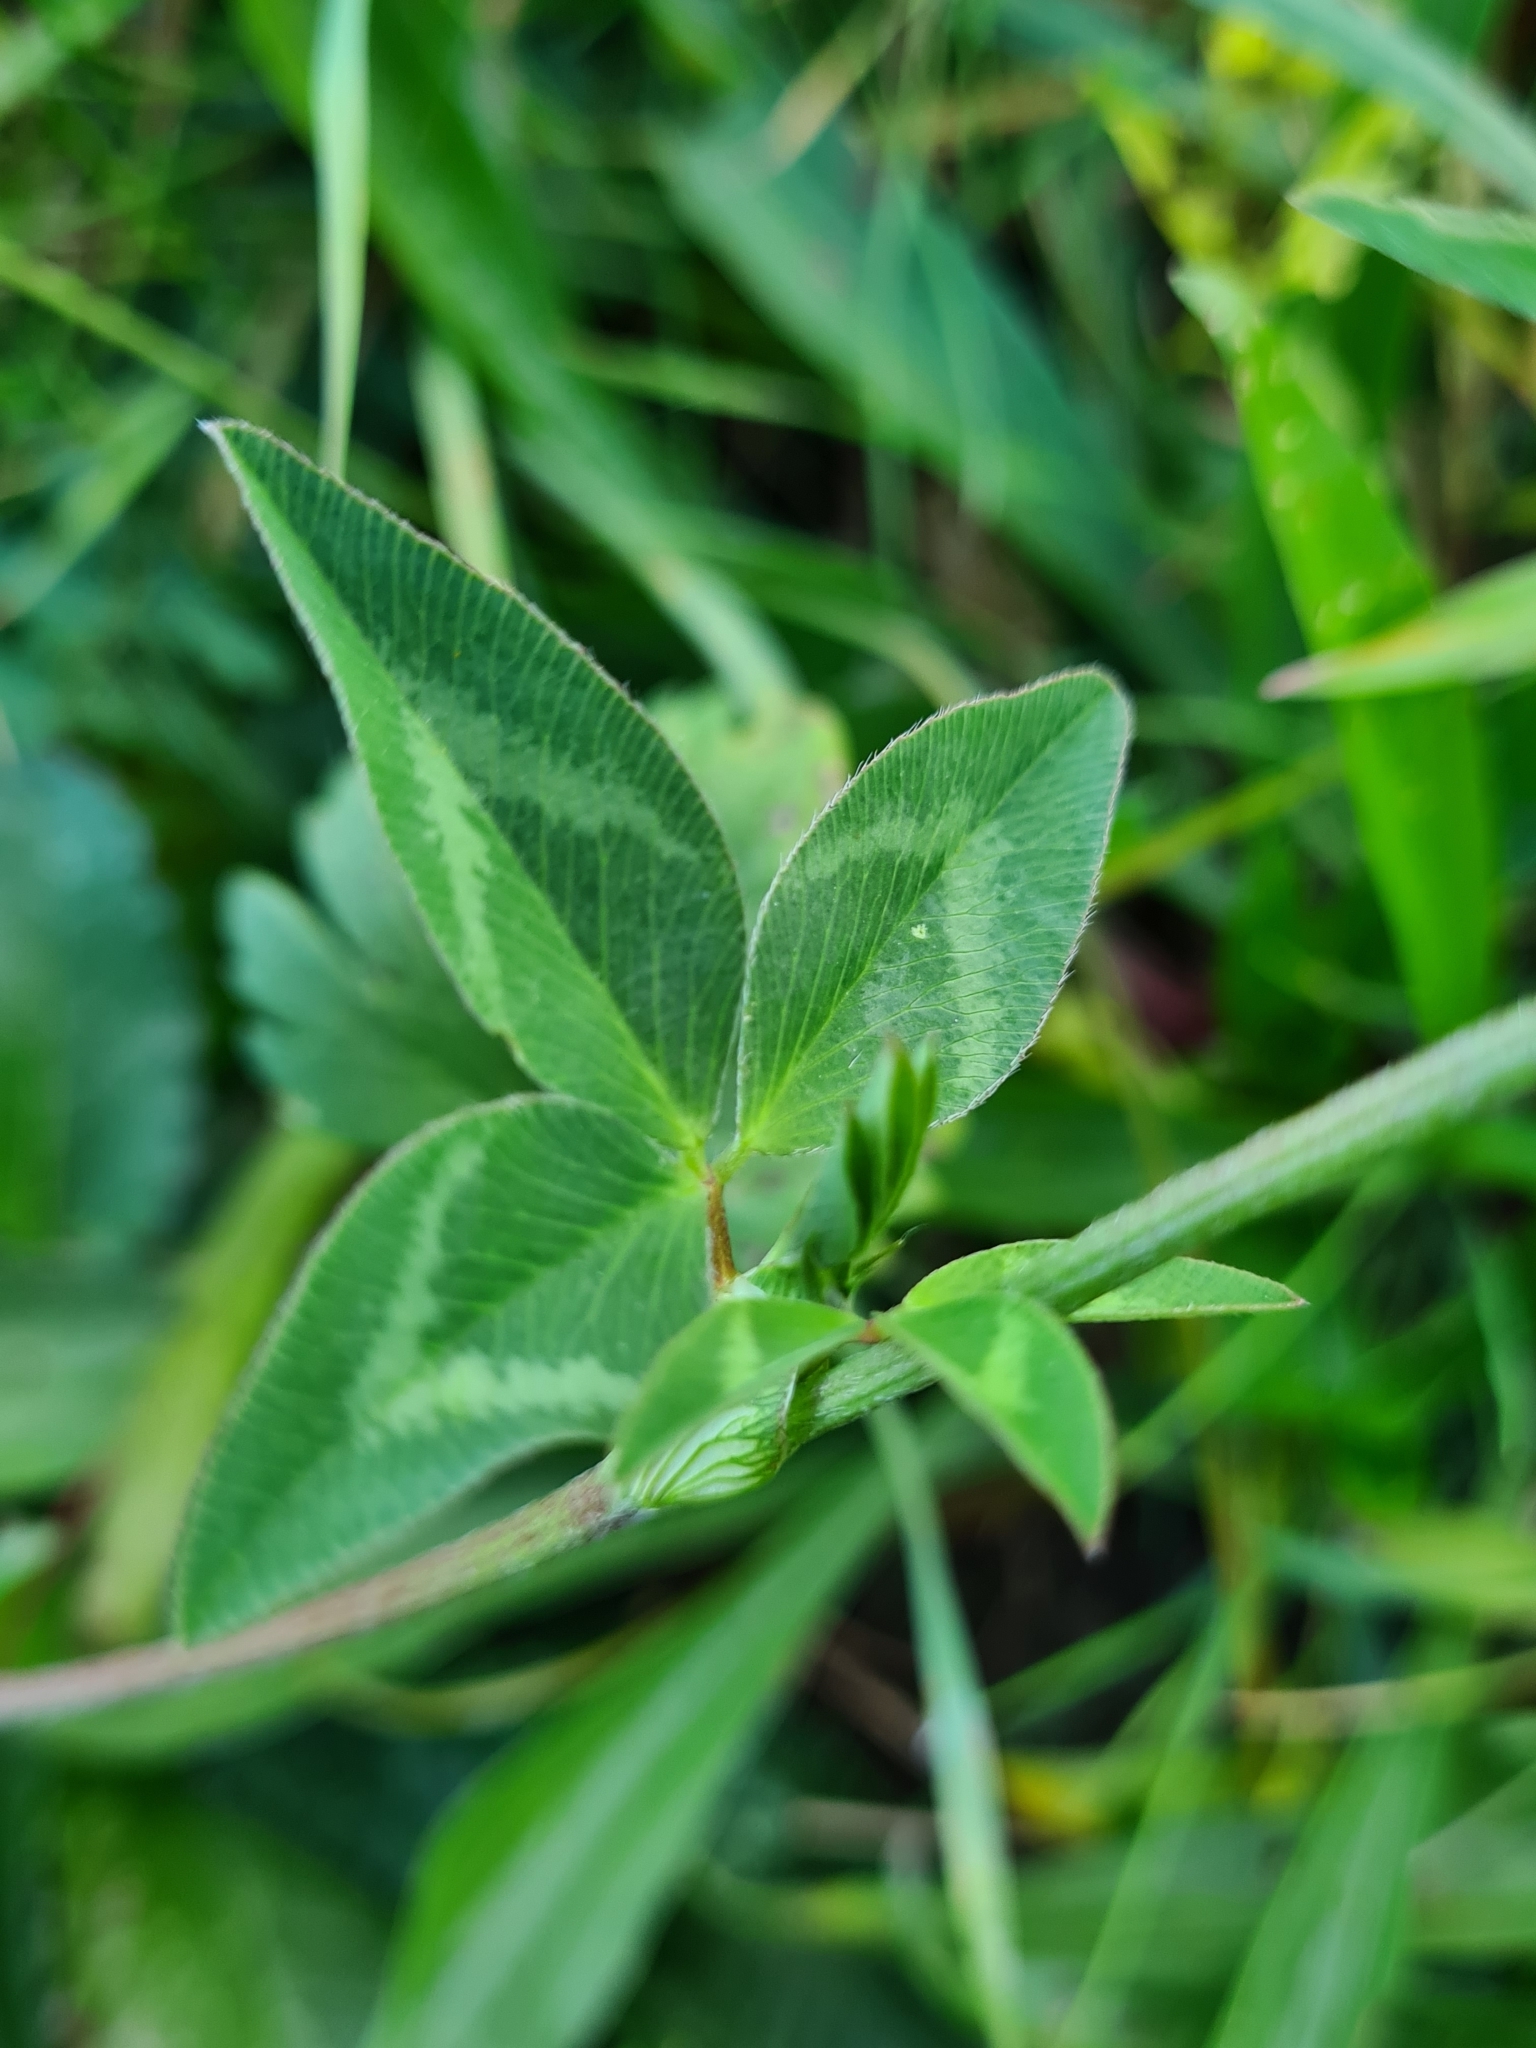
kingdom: Plantae
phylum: Tracheophyta
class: Magnoliopsida
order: Fabales
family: Fabaceae
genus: Trifolium
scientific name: Trifolium pratense
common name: Red clover
